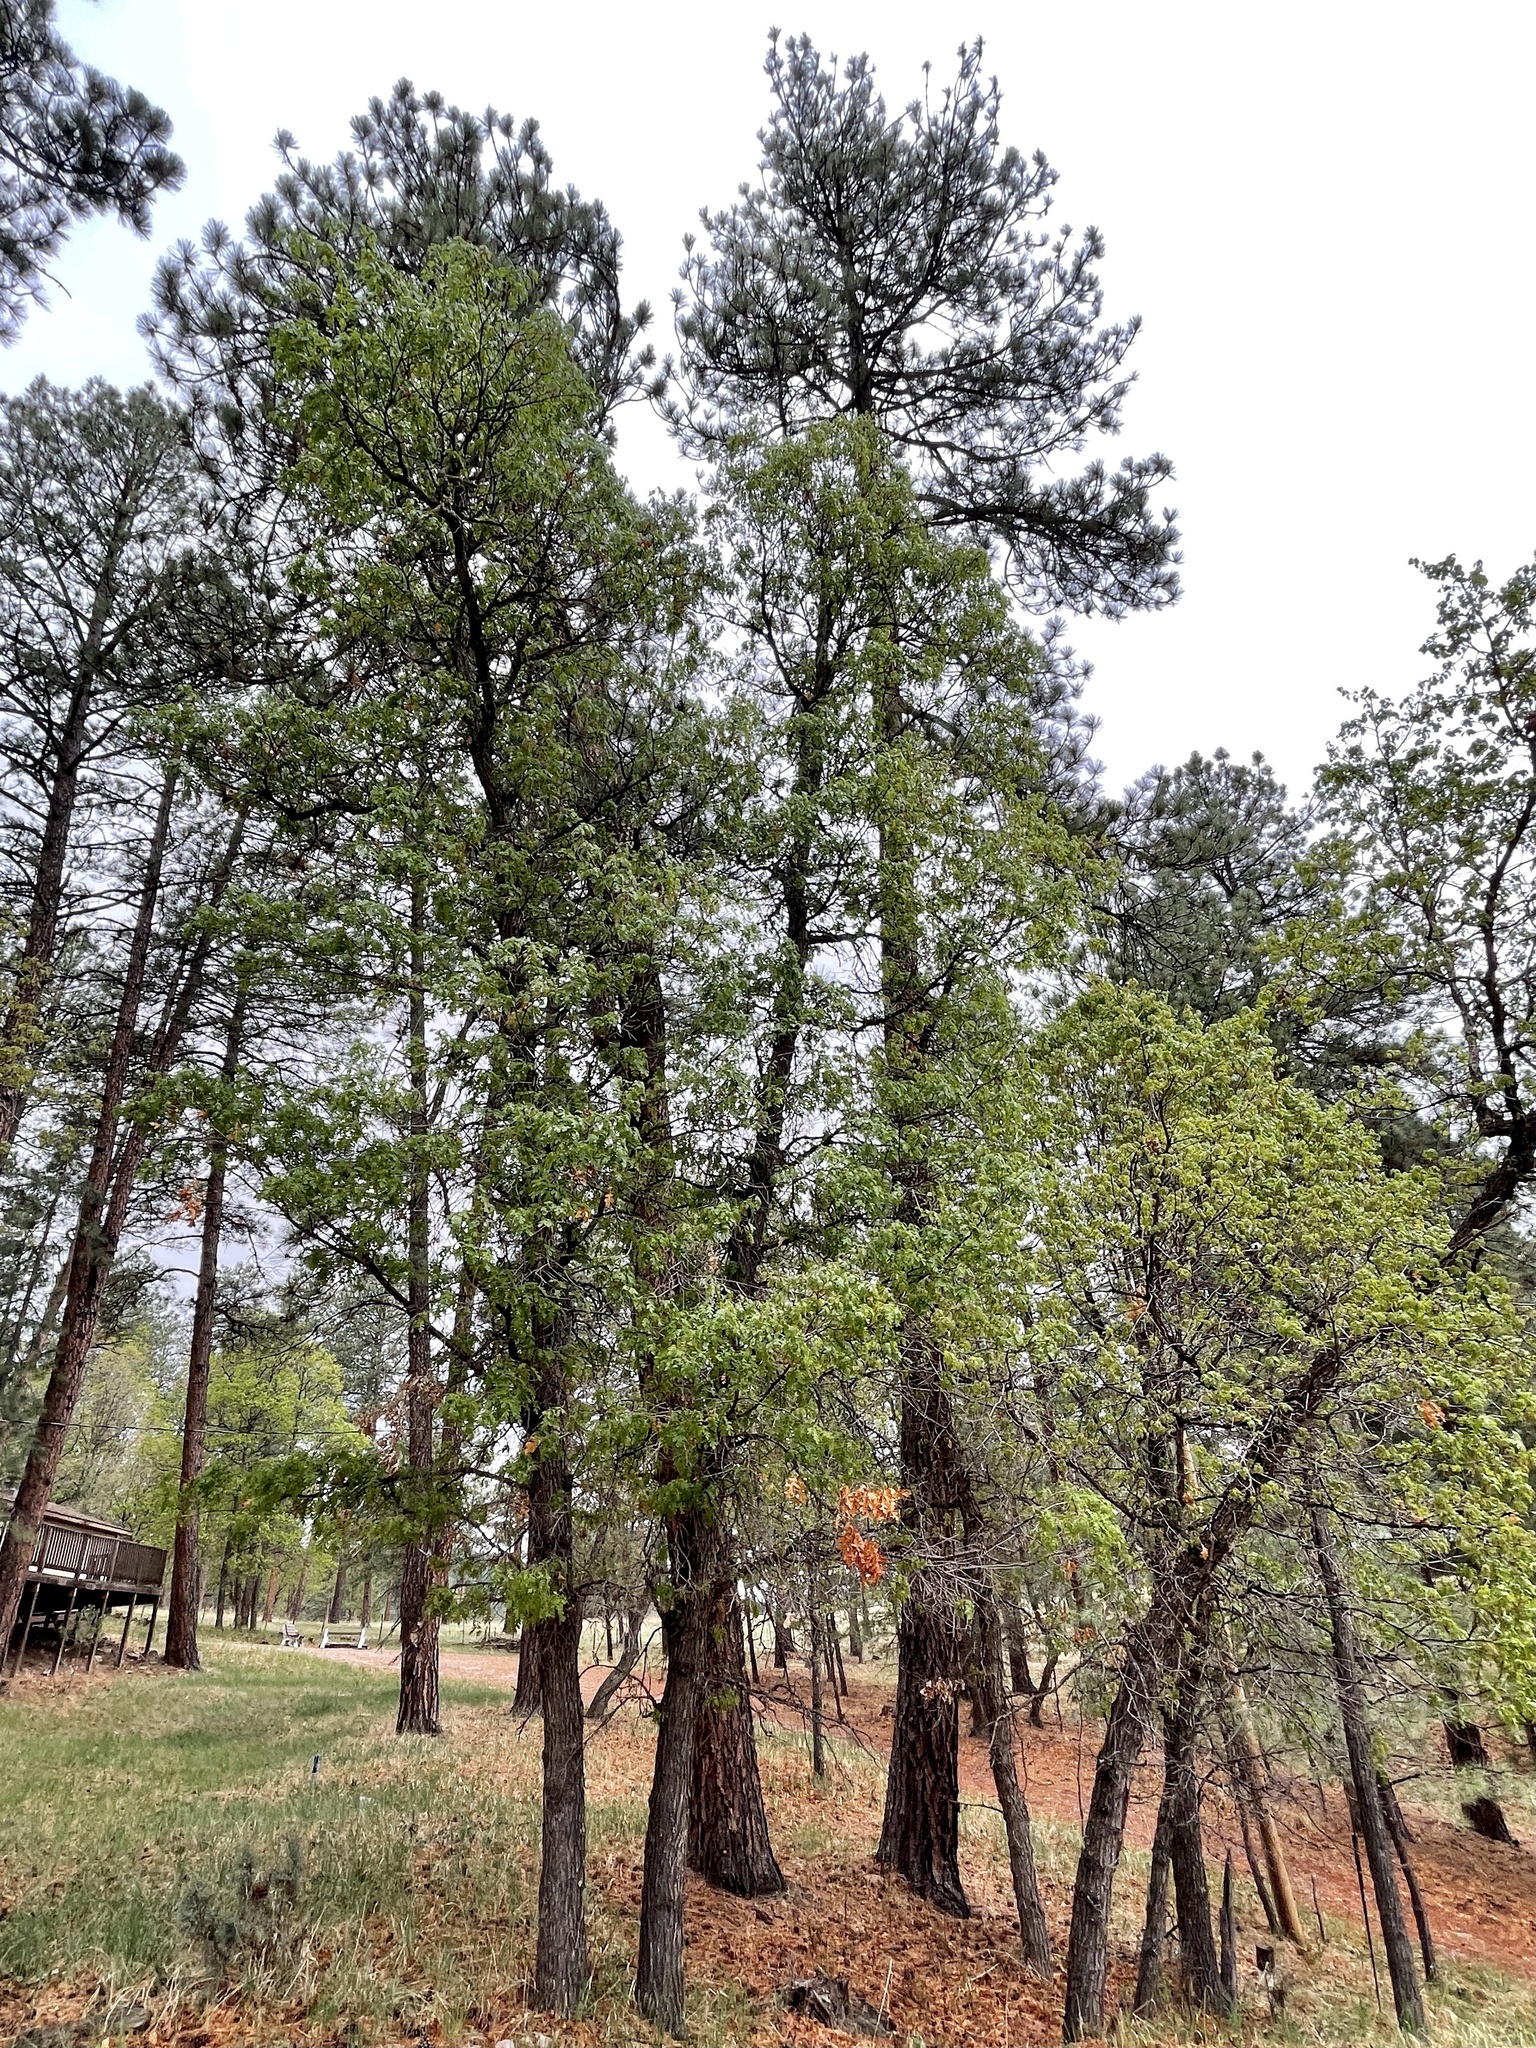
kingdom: Plantae
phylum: Tracheophyta
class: Magnoliopsida
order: Fagales
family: Fagaceae
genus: Quercus
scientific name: Quercus gambelii
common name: Gambel oak
